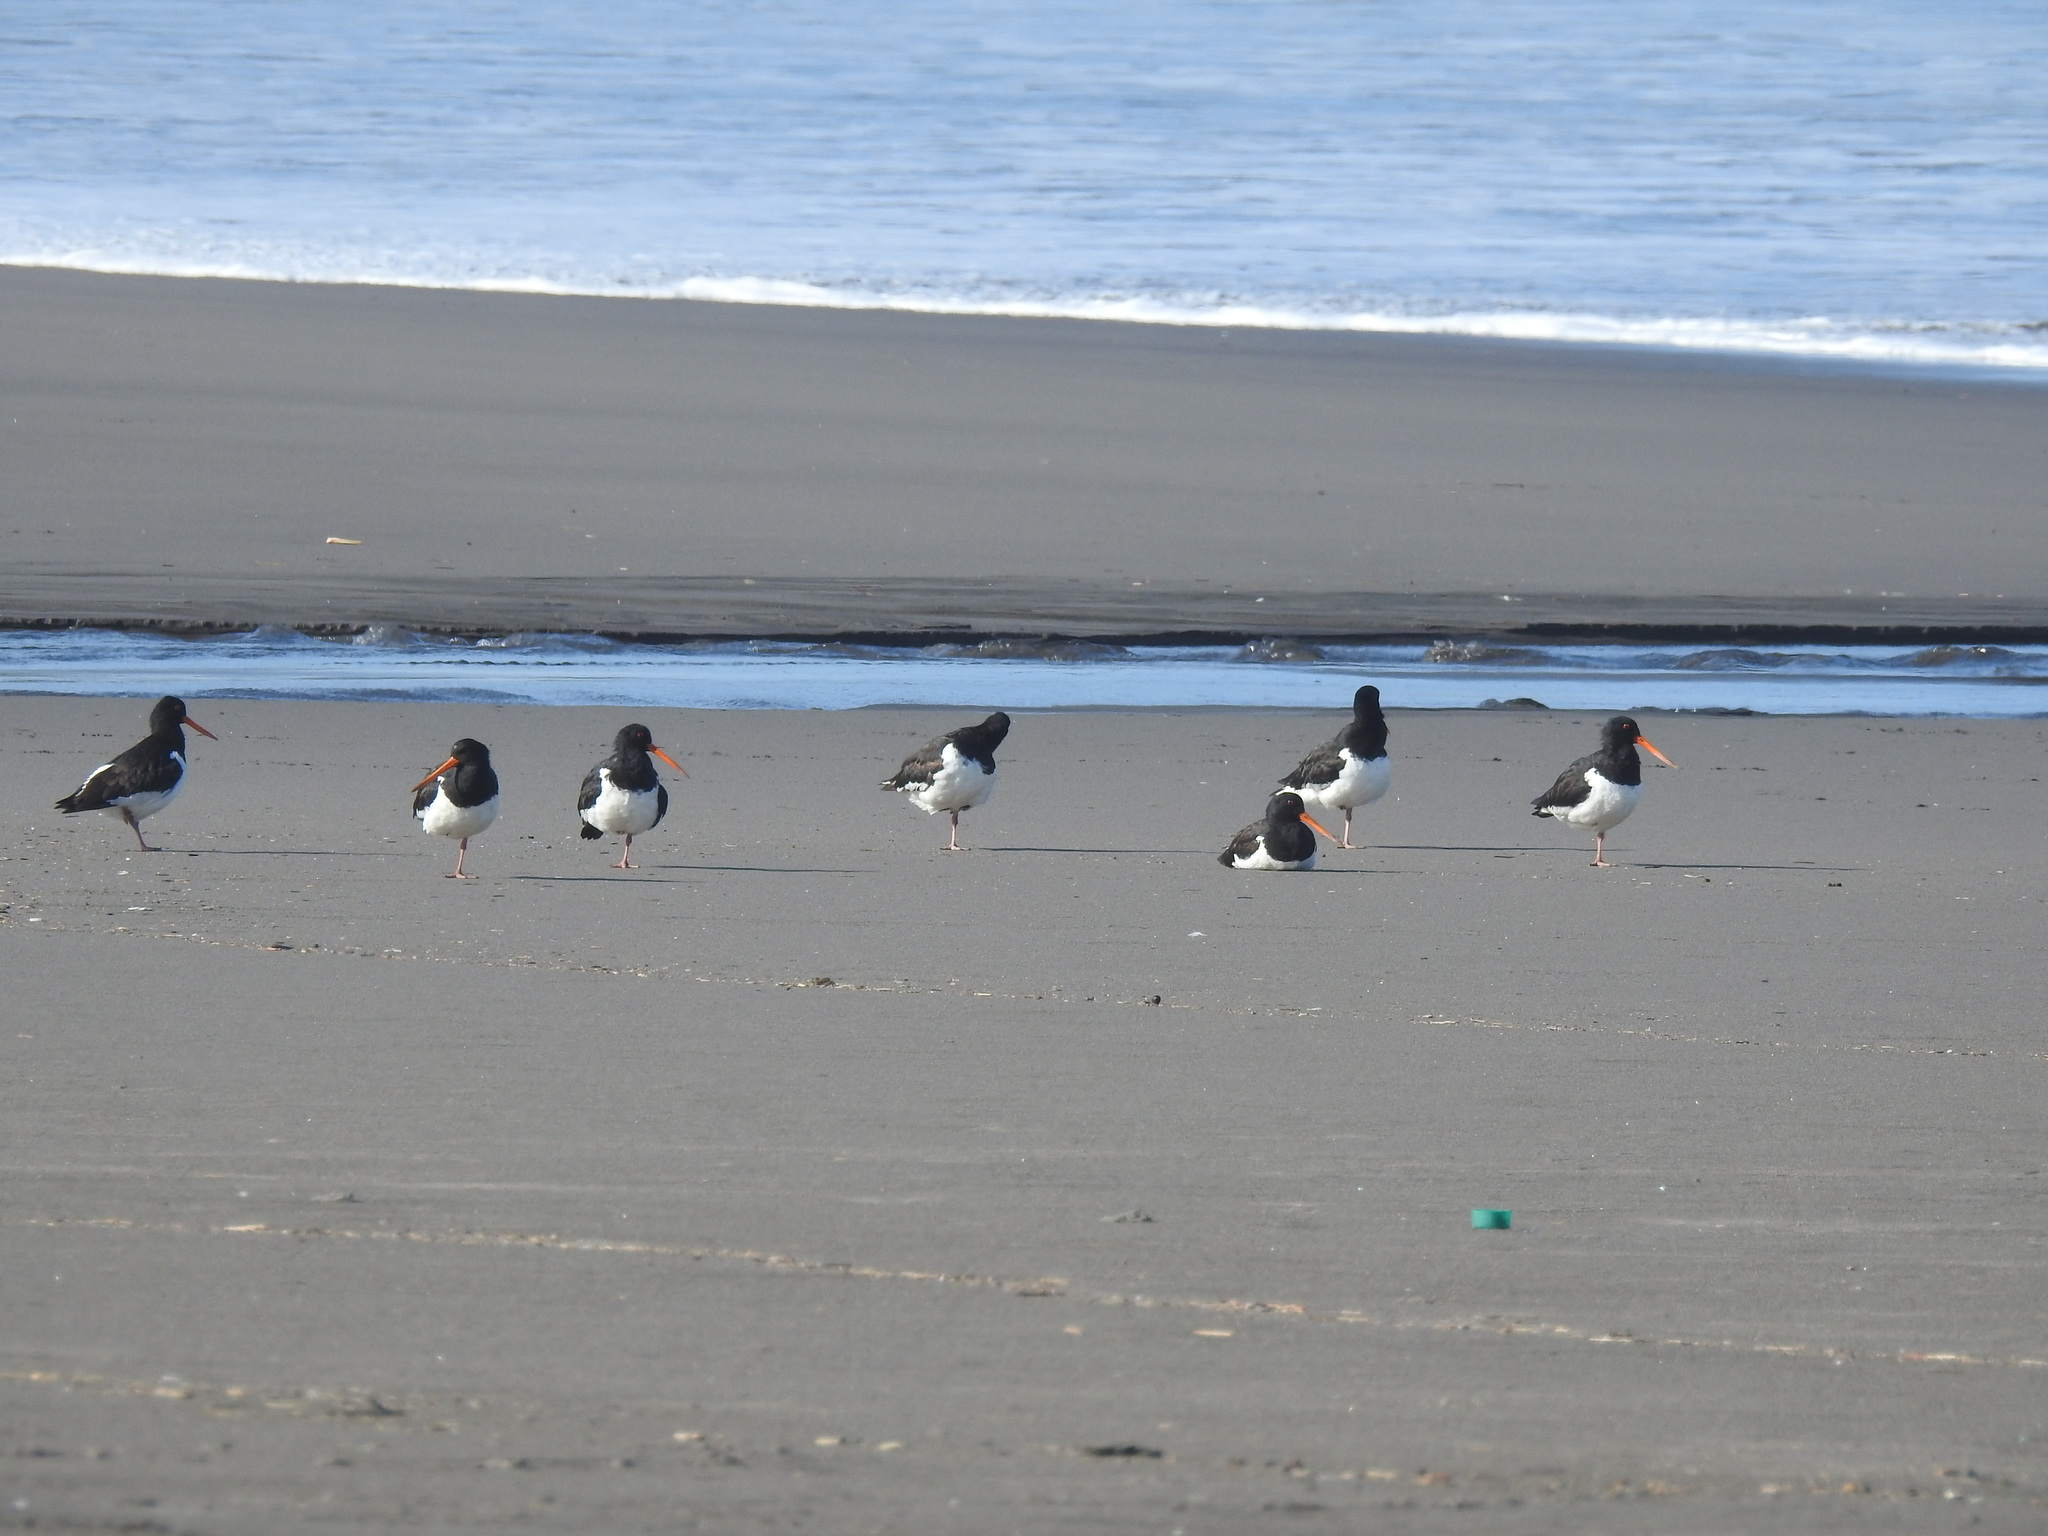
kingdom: Animalia
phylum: Chordata
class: Aves
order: Charadriiformes
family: Haematopodidae
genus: Haematopus
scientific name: Haematopus finschi
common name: South island oystercatcher
